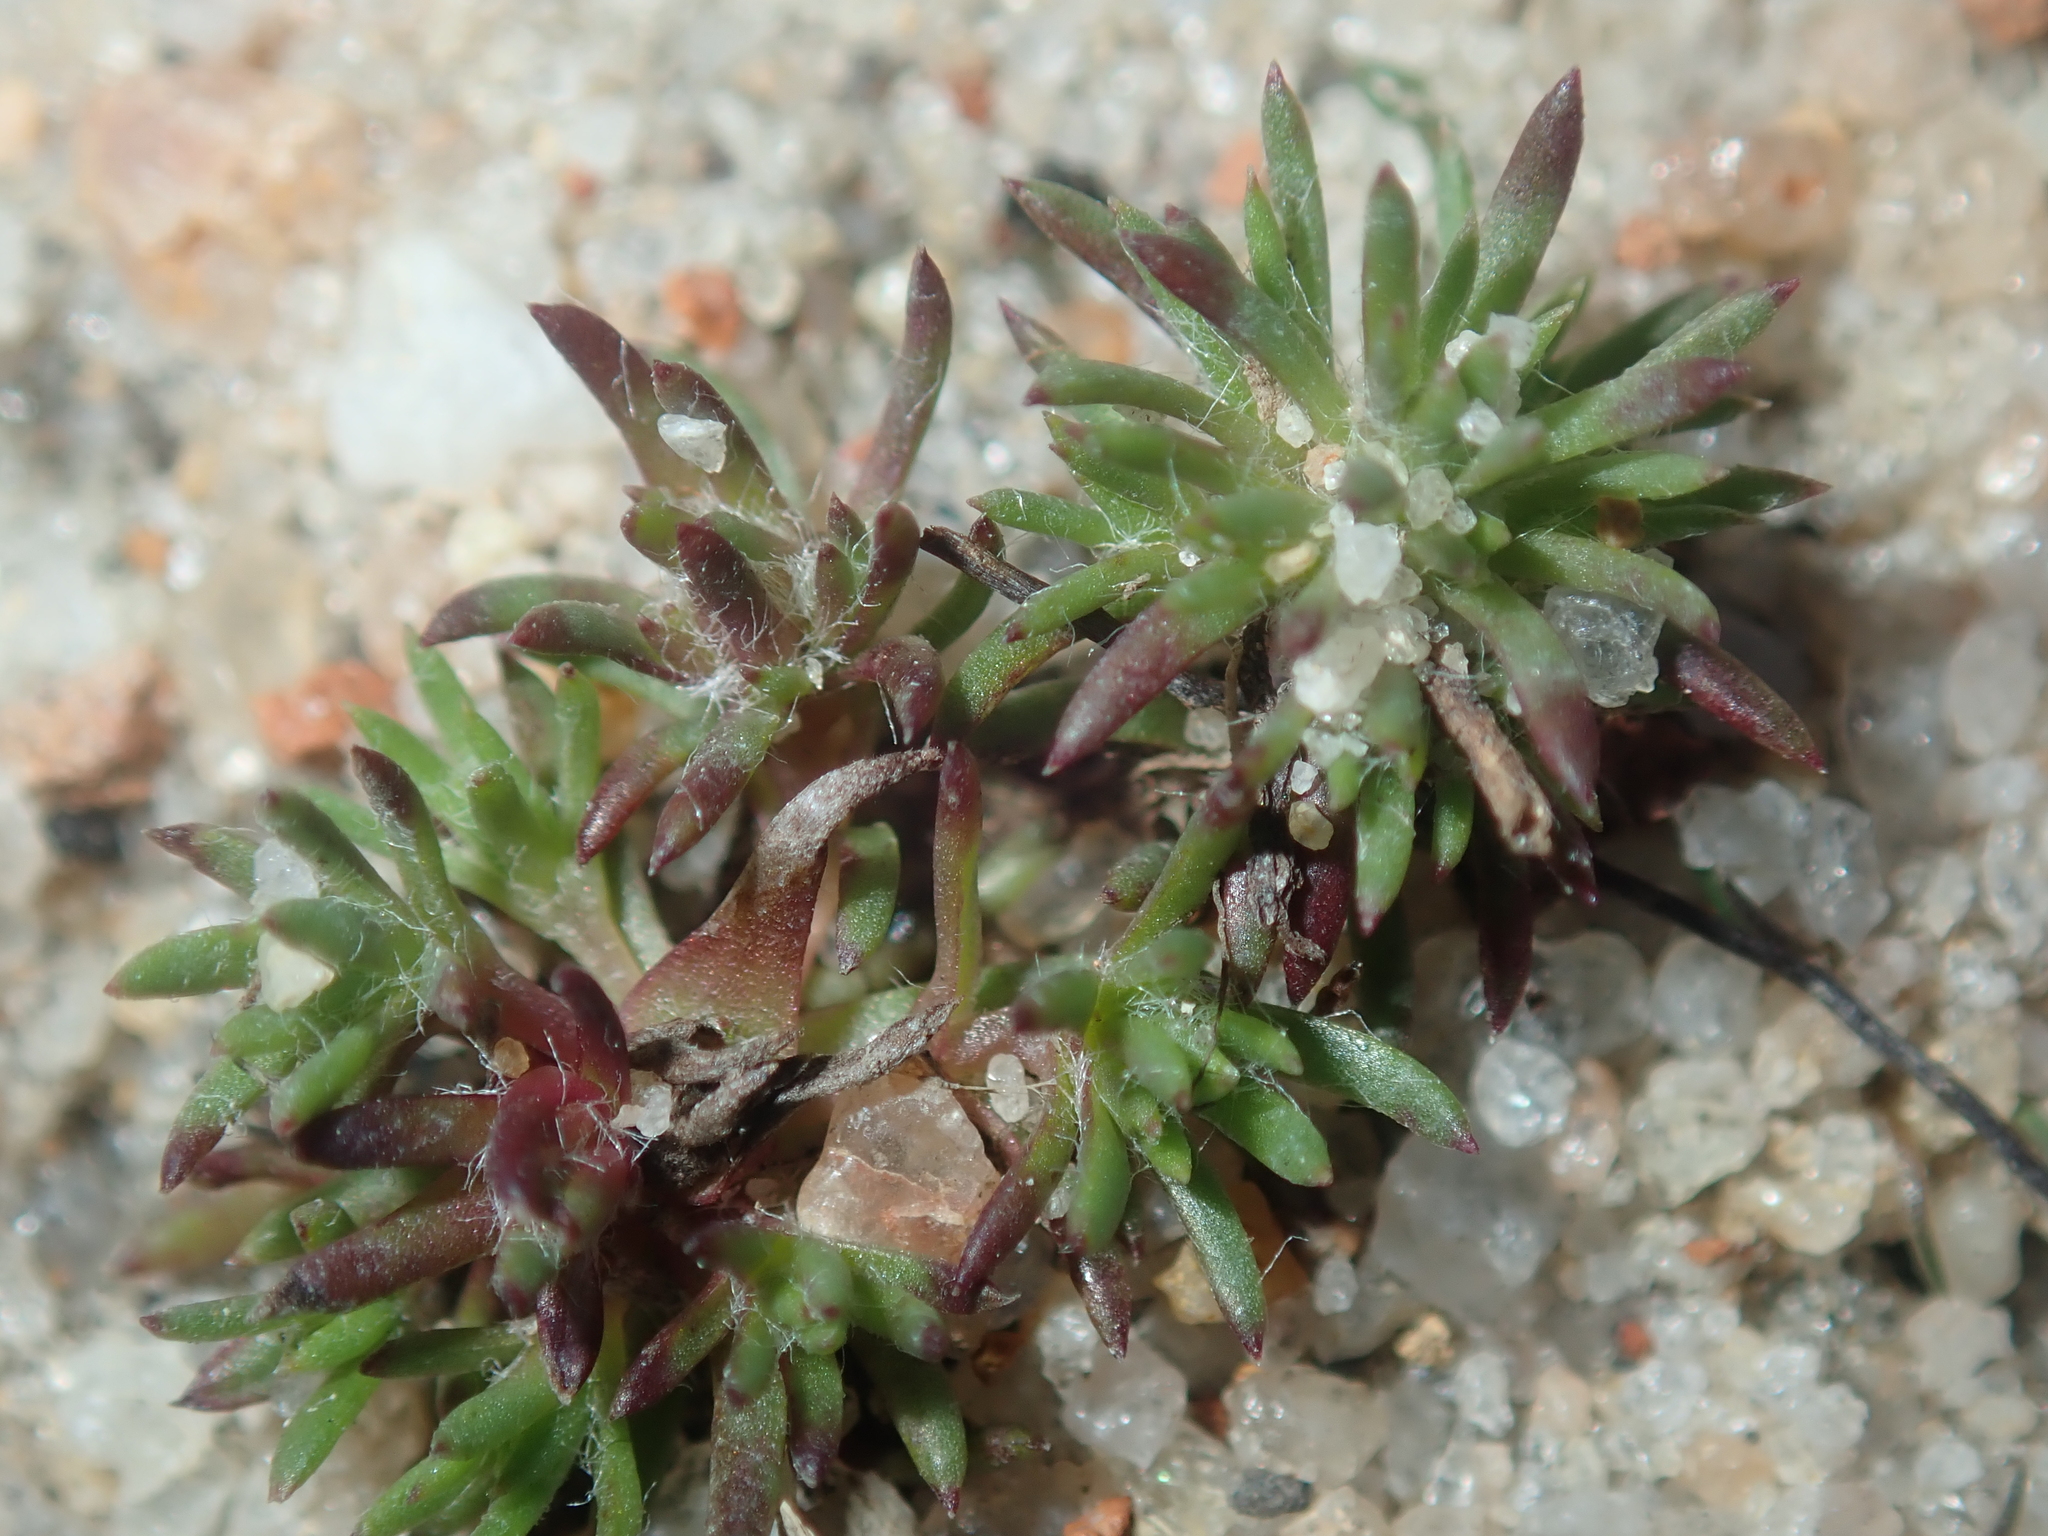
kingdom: Plantae
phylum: Tracheophyta
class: Magnoliopsida
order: Asterales
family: Asteraceae
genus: Hyalosperma
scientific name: Hyalosperma demissum
